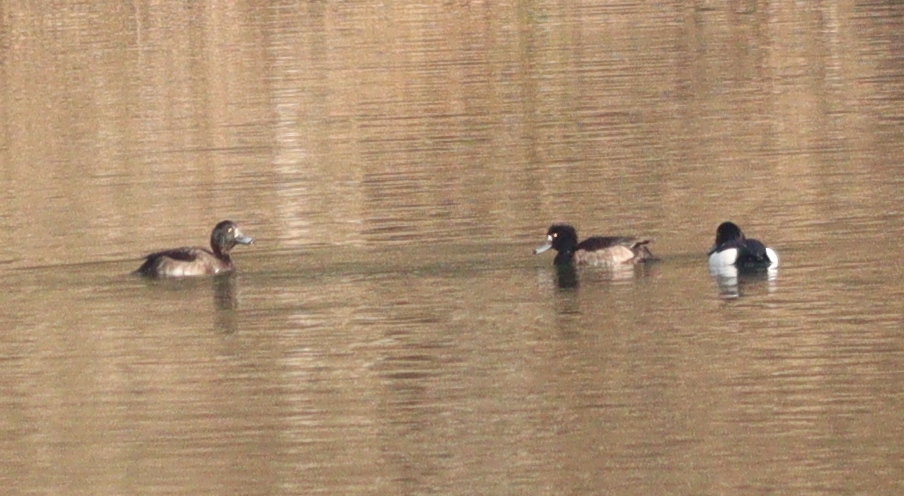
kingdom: Animalia
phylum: Chordata
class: Aves
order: Anseriformes
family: Anatidae
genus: Aythya
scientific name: Aythya fuligula
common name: Tufted duck
